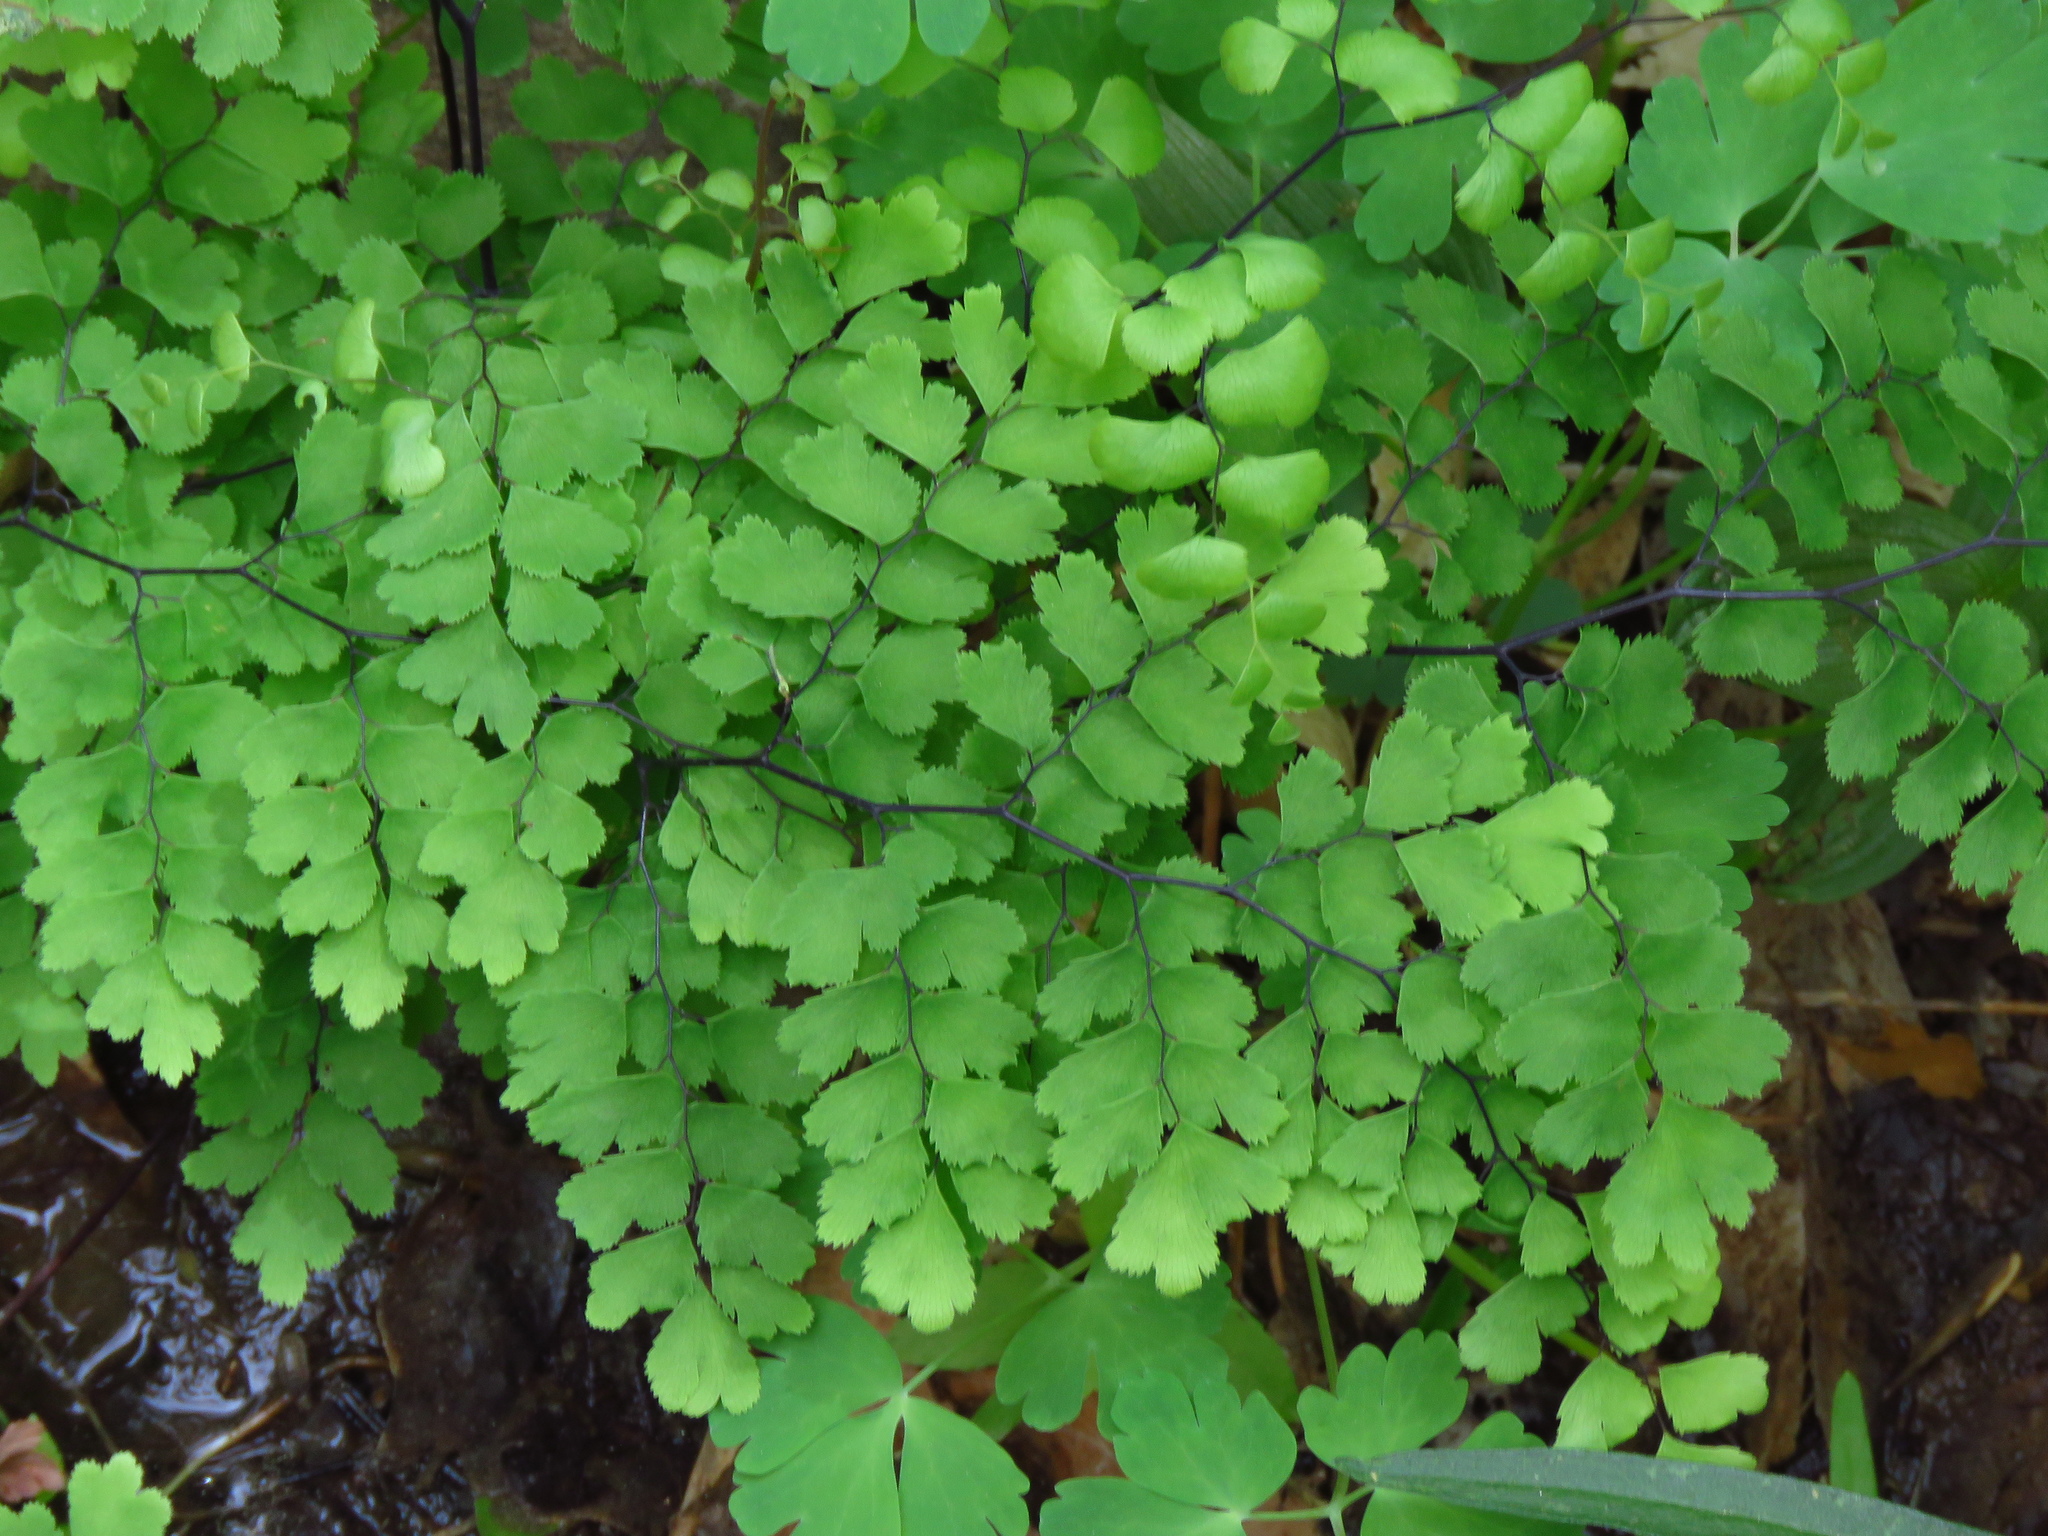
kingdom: Plantae
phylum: Tracheophyta
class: Polypodiopsida
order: Polypodiales
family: Pteridaceae
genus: Adiantum
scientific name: Adiantum capillus-veneris
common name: Maidenhair fern
